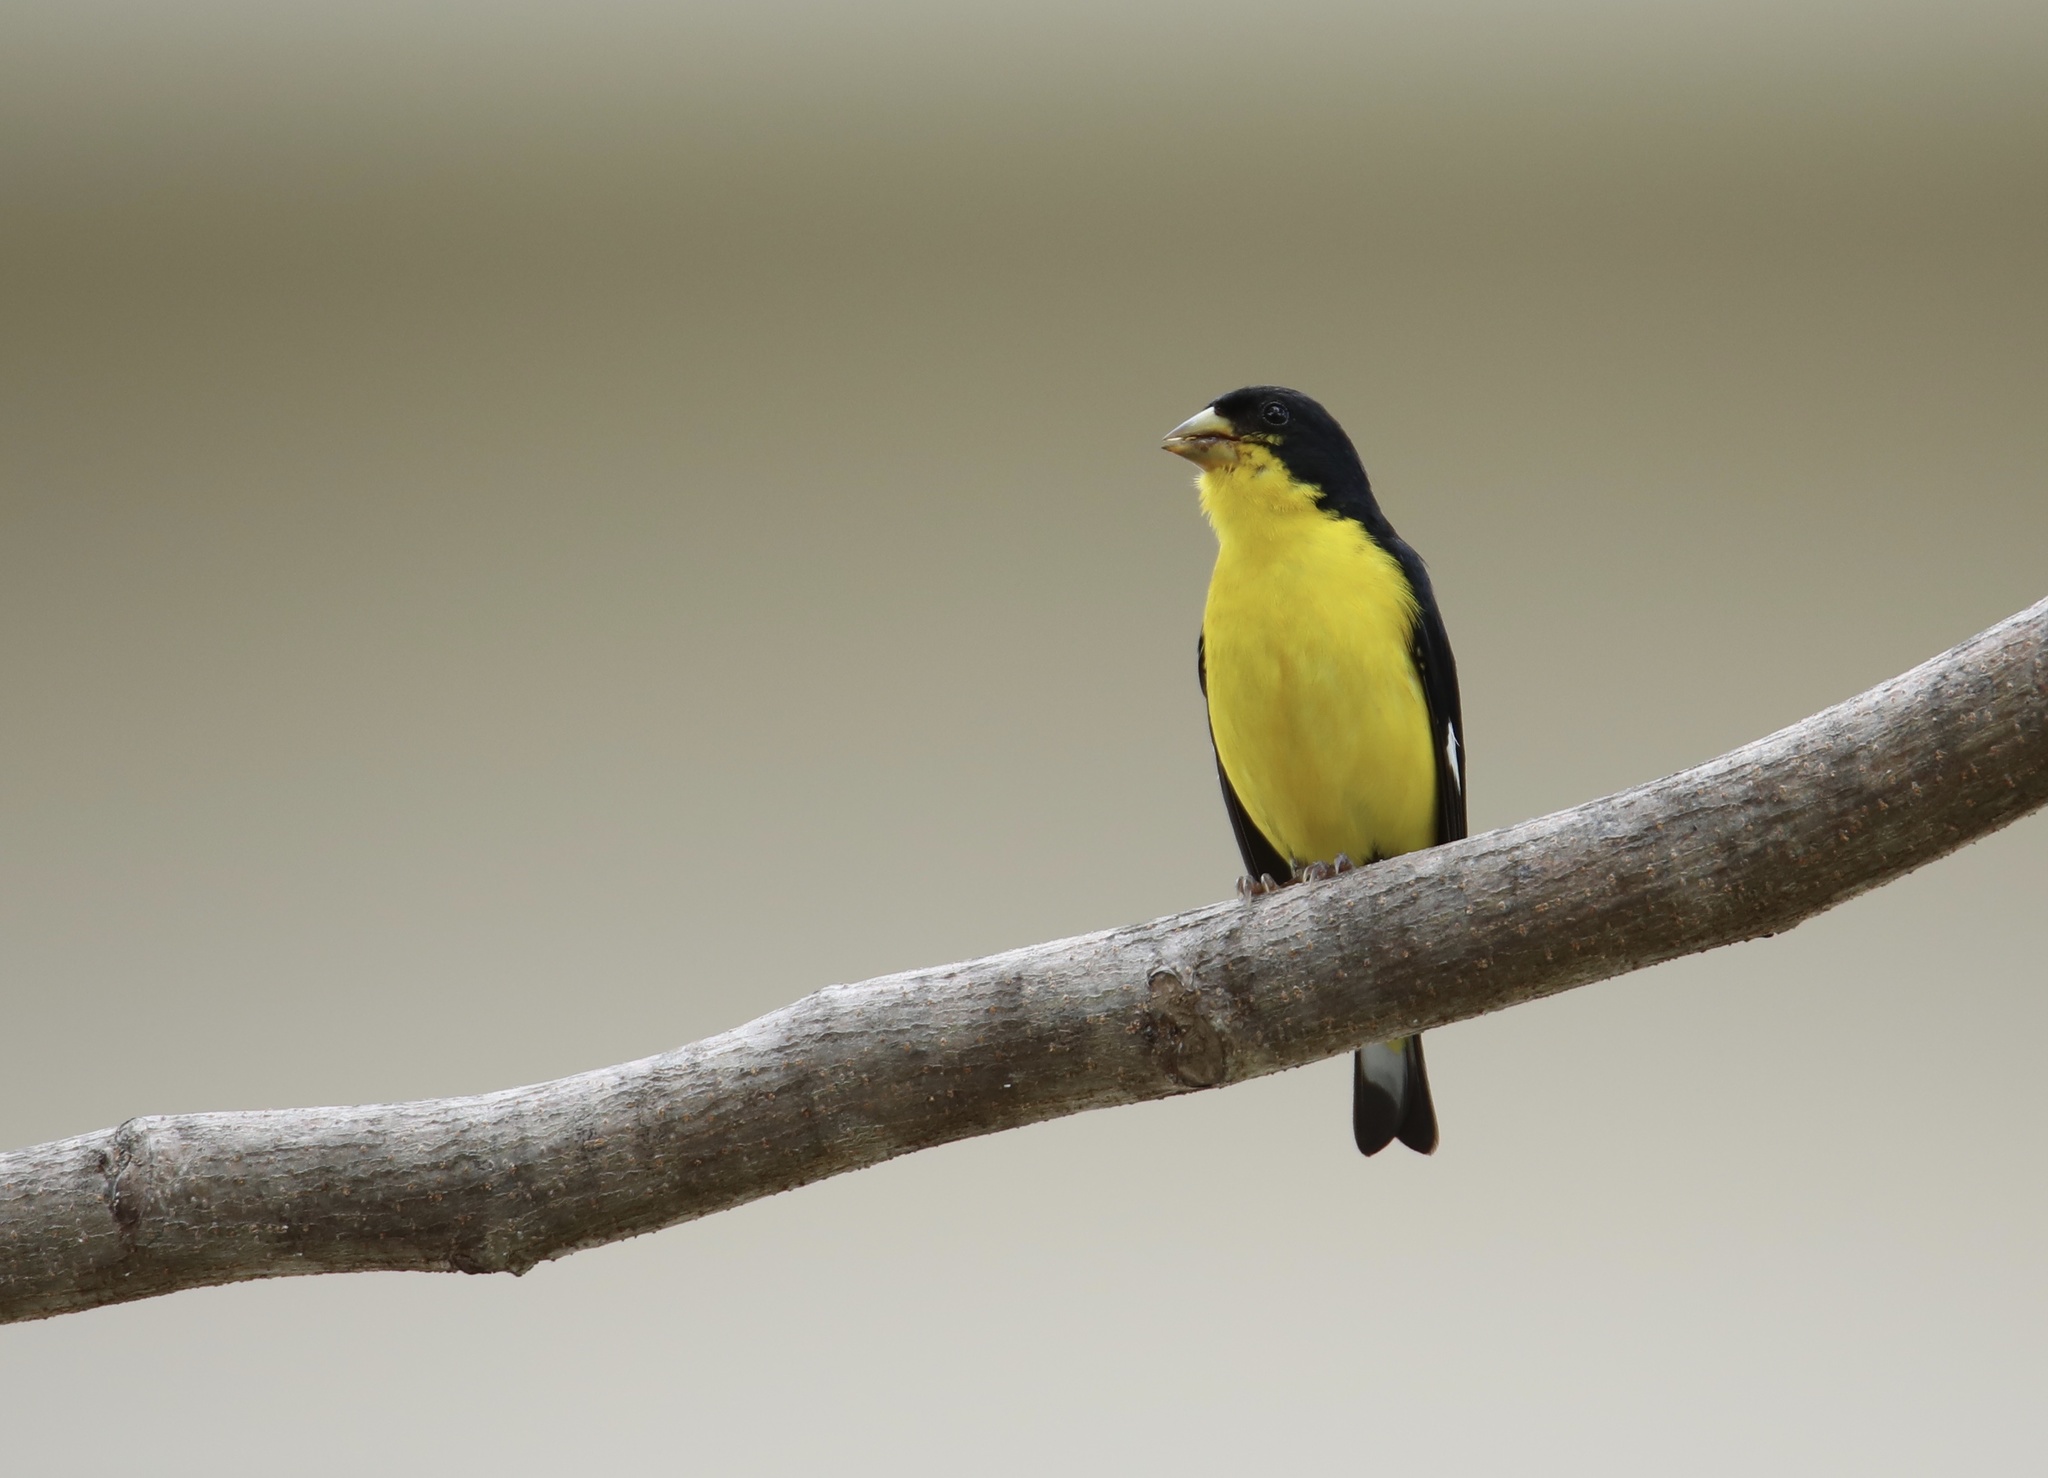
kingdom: Animalia
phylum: Chordata
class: Aves
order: Passeriformes
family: Fringillidae
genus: Spinus
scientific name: Spinus psaltria
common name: Lesser goldfinch
